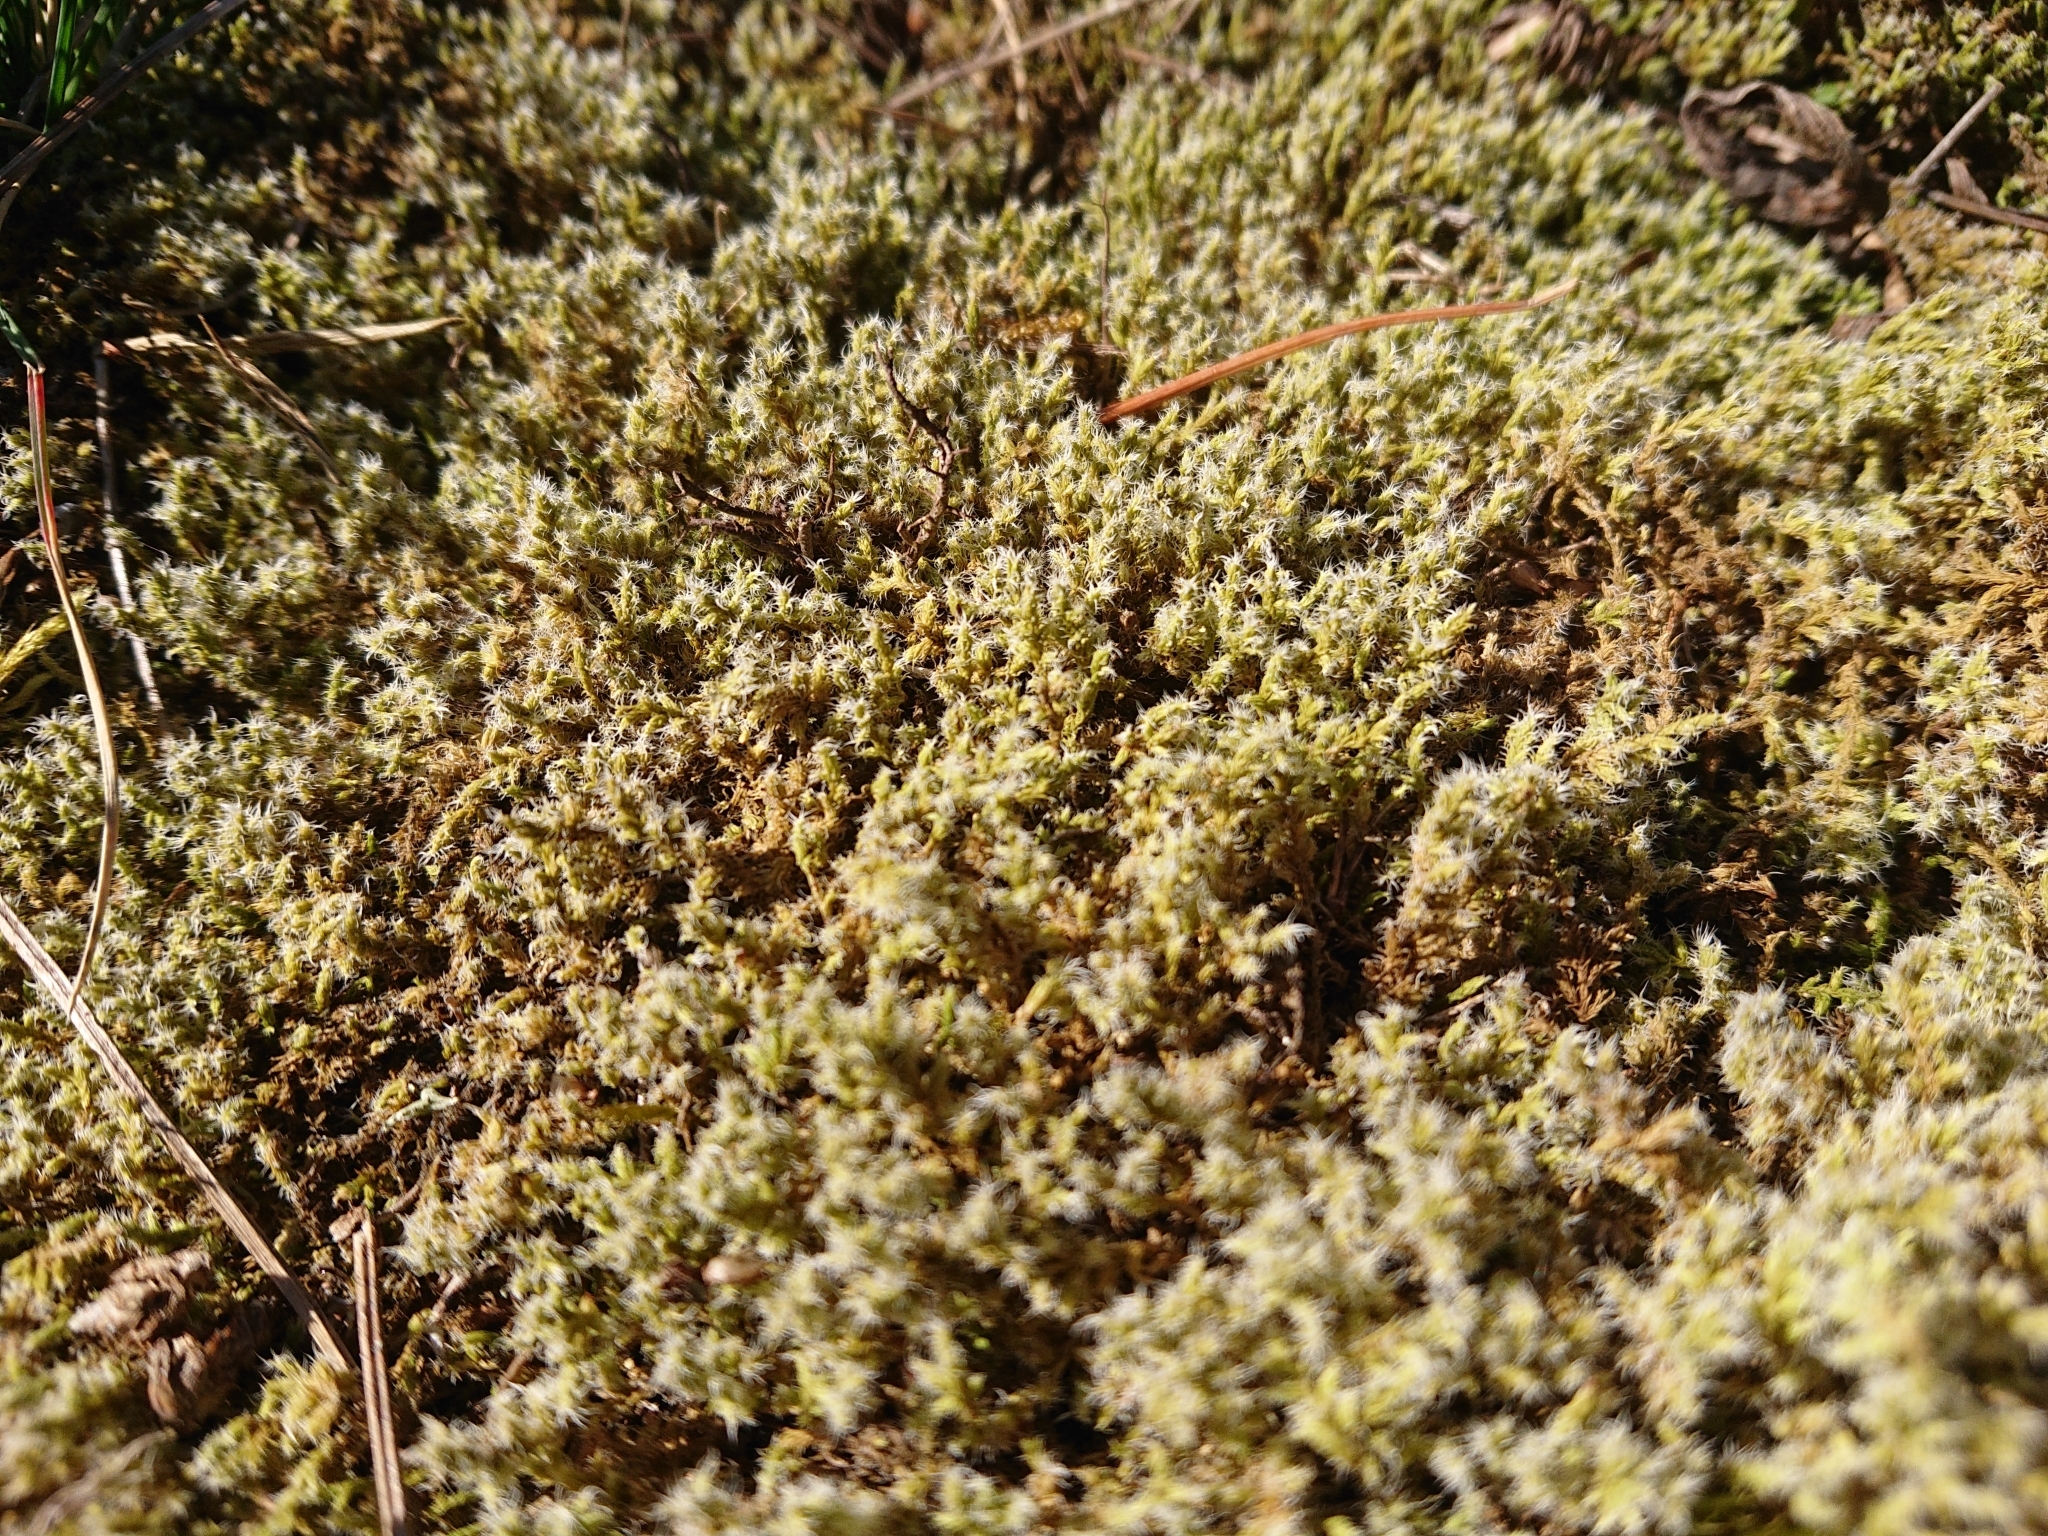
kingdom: Plantae
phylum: Bryophyta
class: Bryopsida
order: Grimmiales
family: Grimmiaceae
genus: Niphotrichum
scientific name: Niphotrichum elongatum
